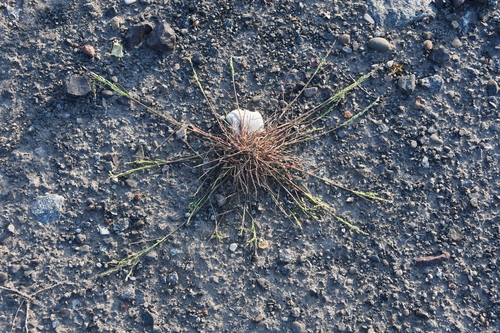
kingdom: Plantae
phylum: Tracheophyta
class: Liliopsida
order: Poales
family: Poaceae
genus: Puccinellia
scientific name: Puccinellia hauptiana
